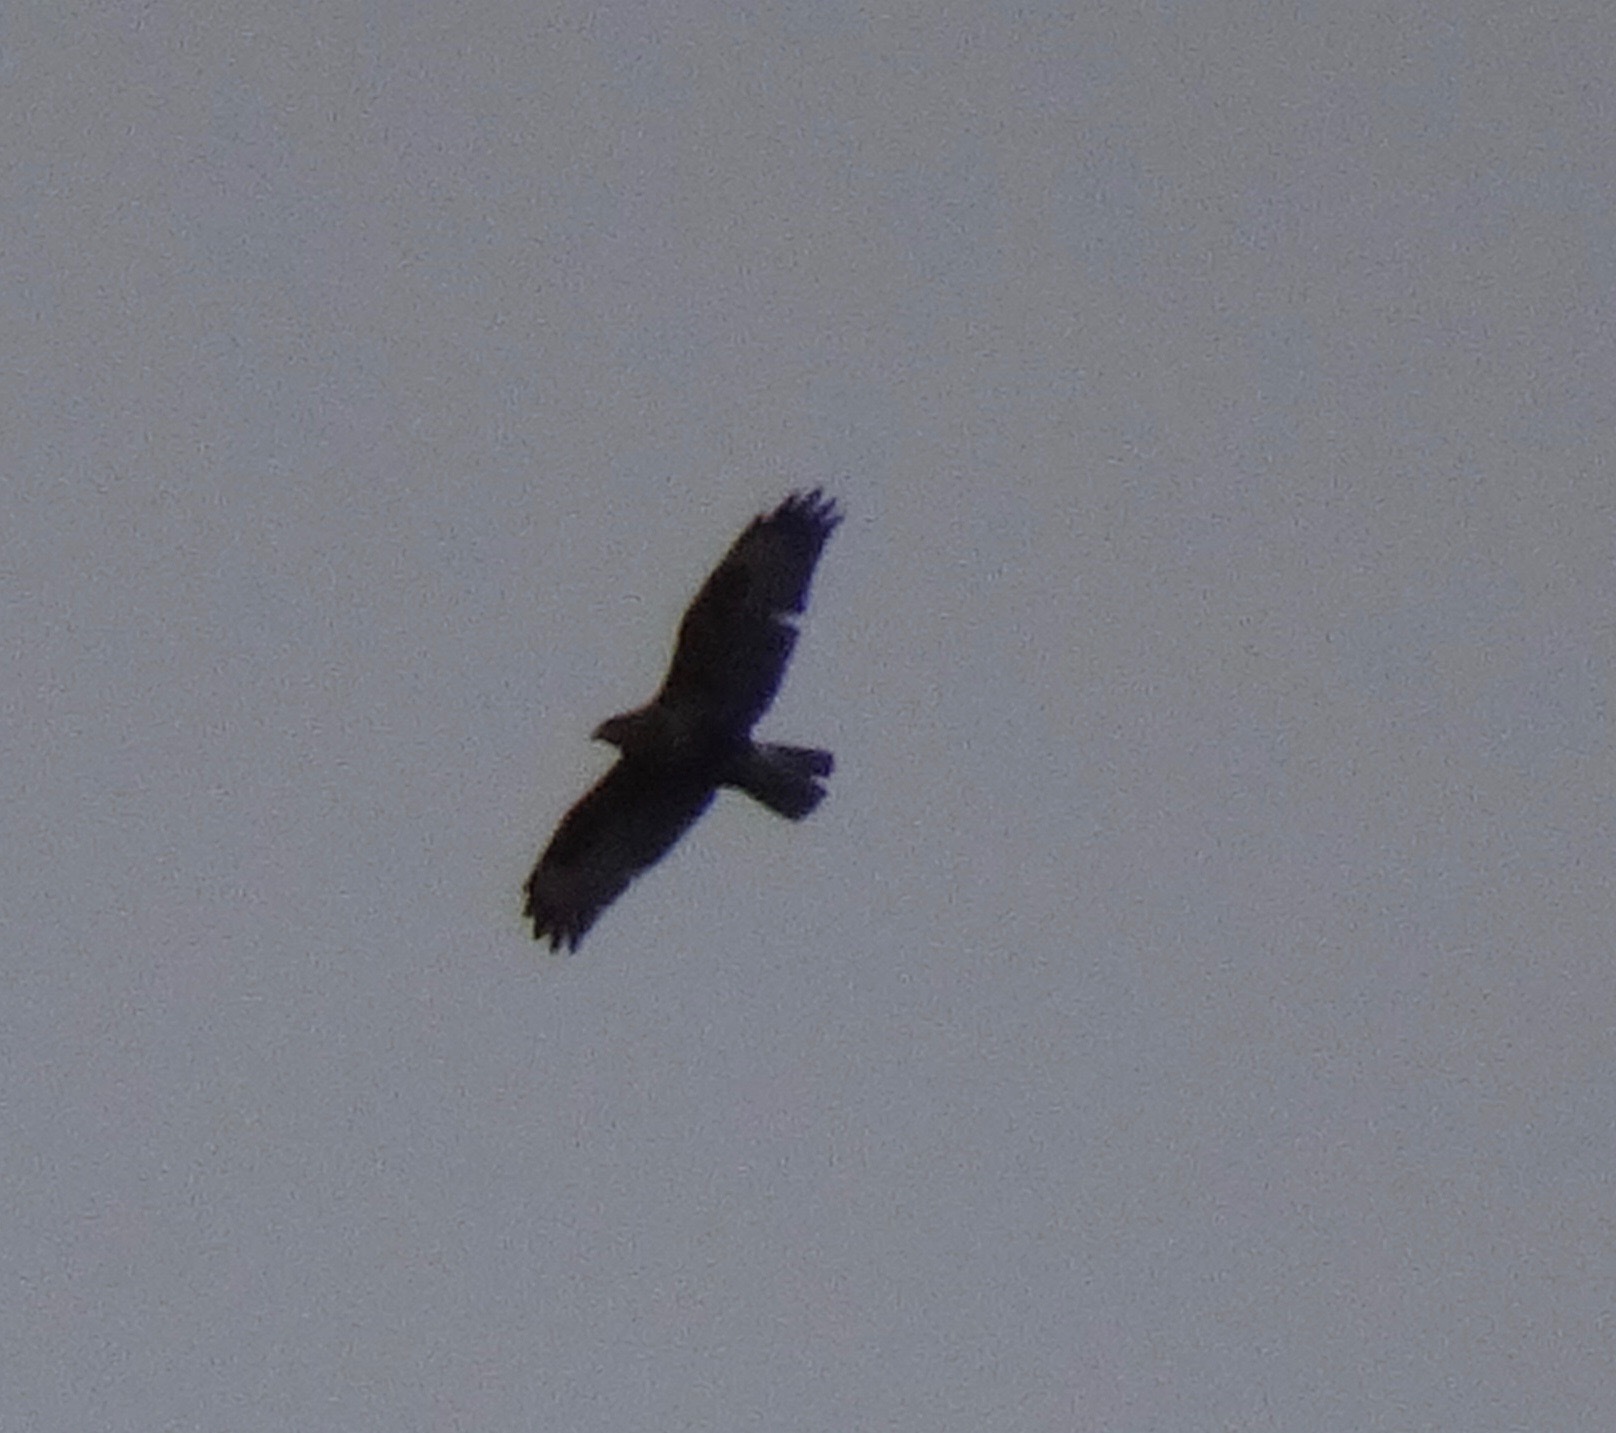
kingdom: Animalia
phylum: Chordata
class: Aves
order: Accipitriformes
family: Accipitridae
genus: Buteo
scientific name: Buteo buteo
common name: Common buzzard
